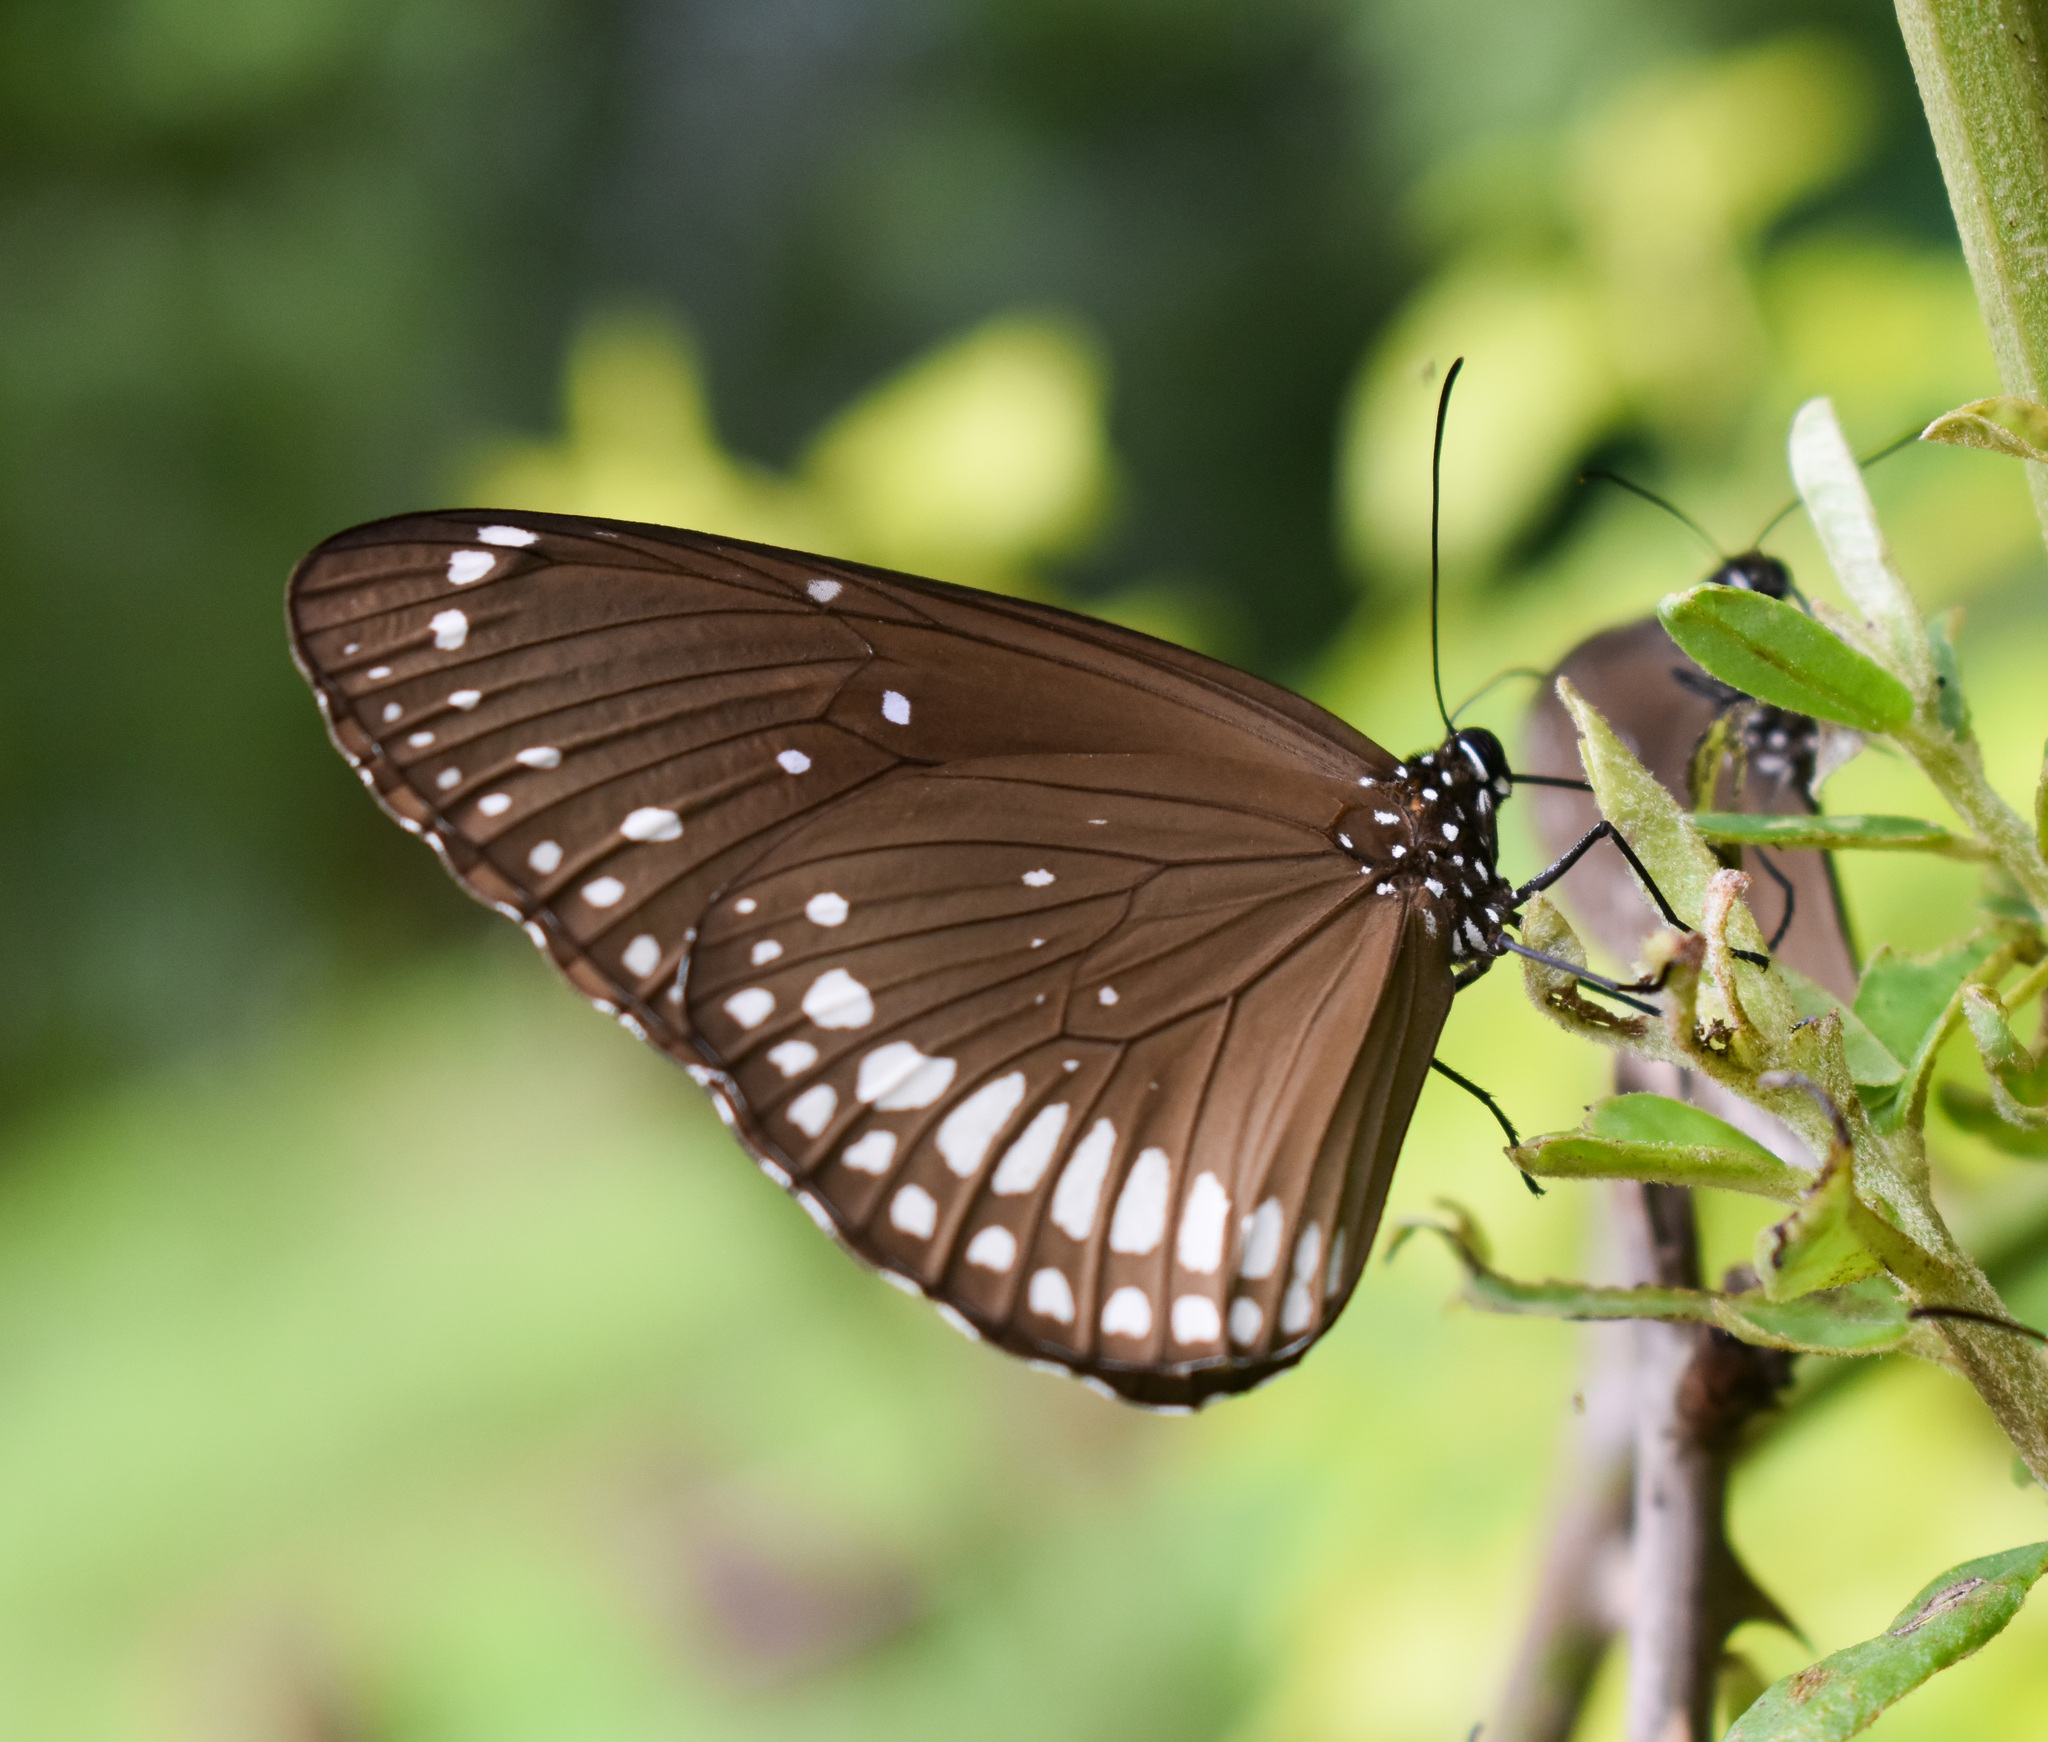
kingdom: Animalia
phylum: Arthropoda
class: Insecta
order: Lepidoptera
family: Nymphalidae
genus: Euploea
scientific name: Euploea core
